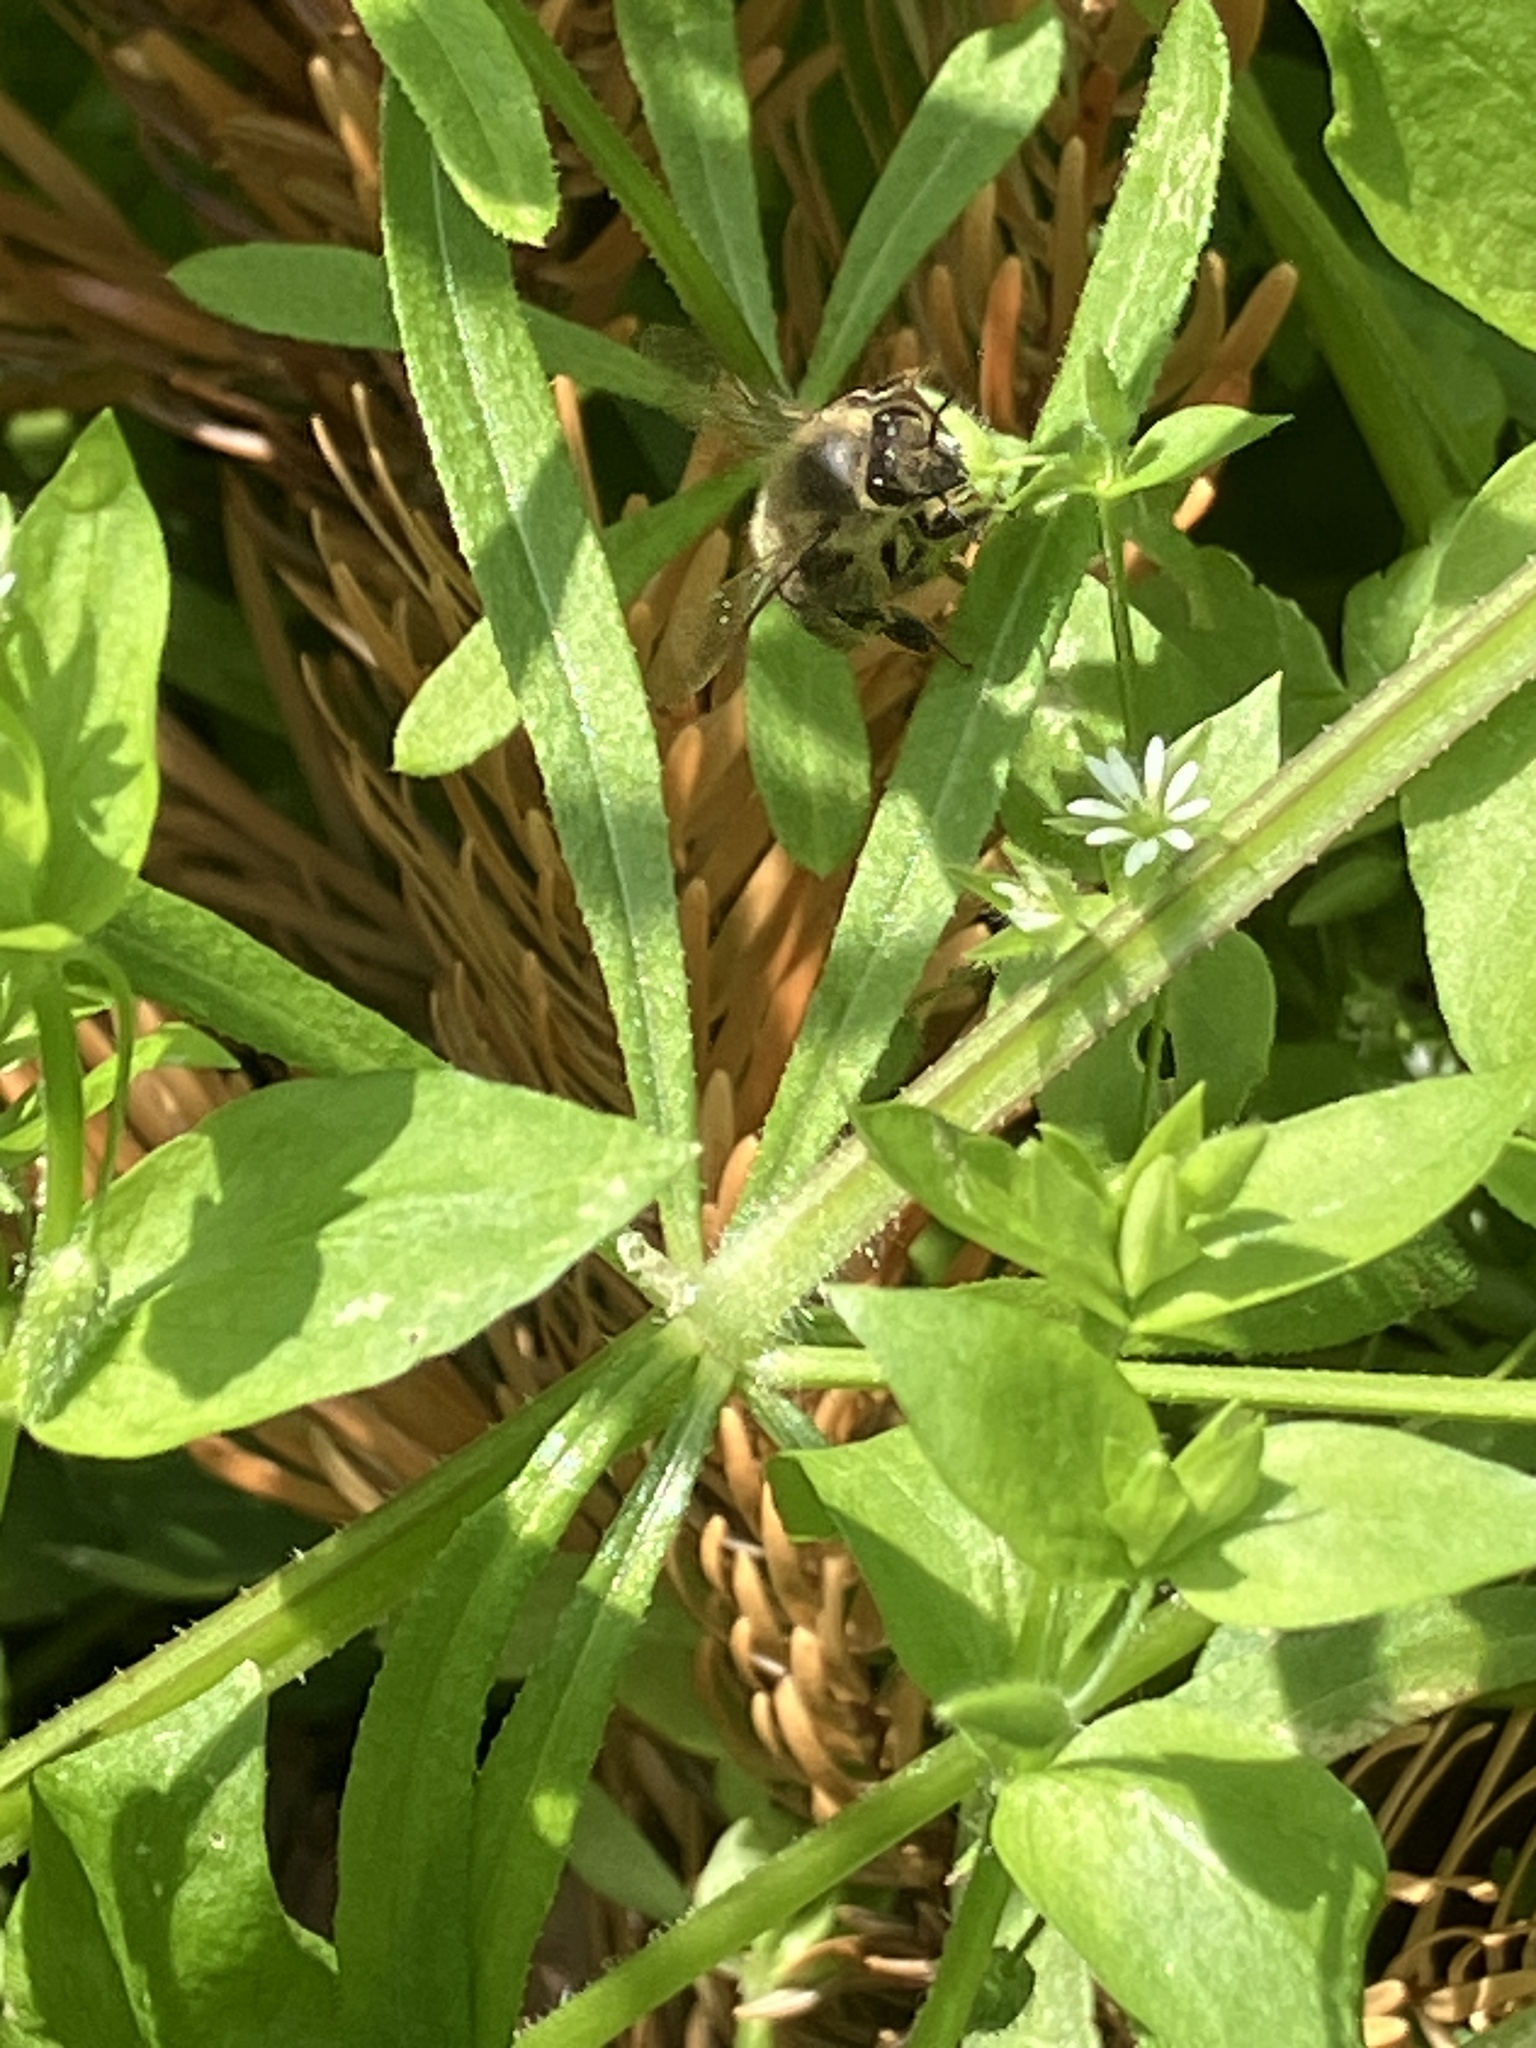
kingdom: Animalia
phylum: Arthropoda
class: Insecta
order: Hymenoptera
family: Apidae
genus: Apis
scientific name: Apis mellifera
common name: Honey bee
